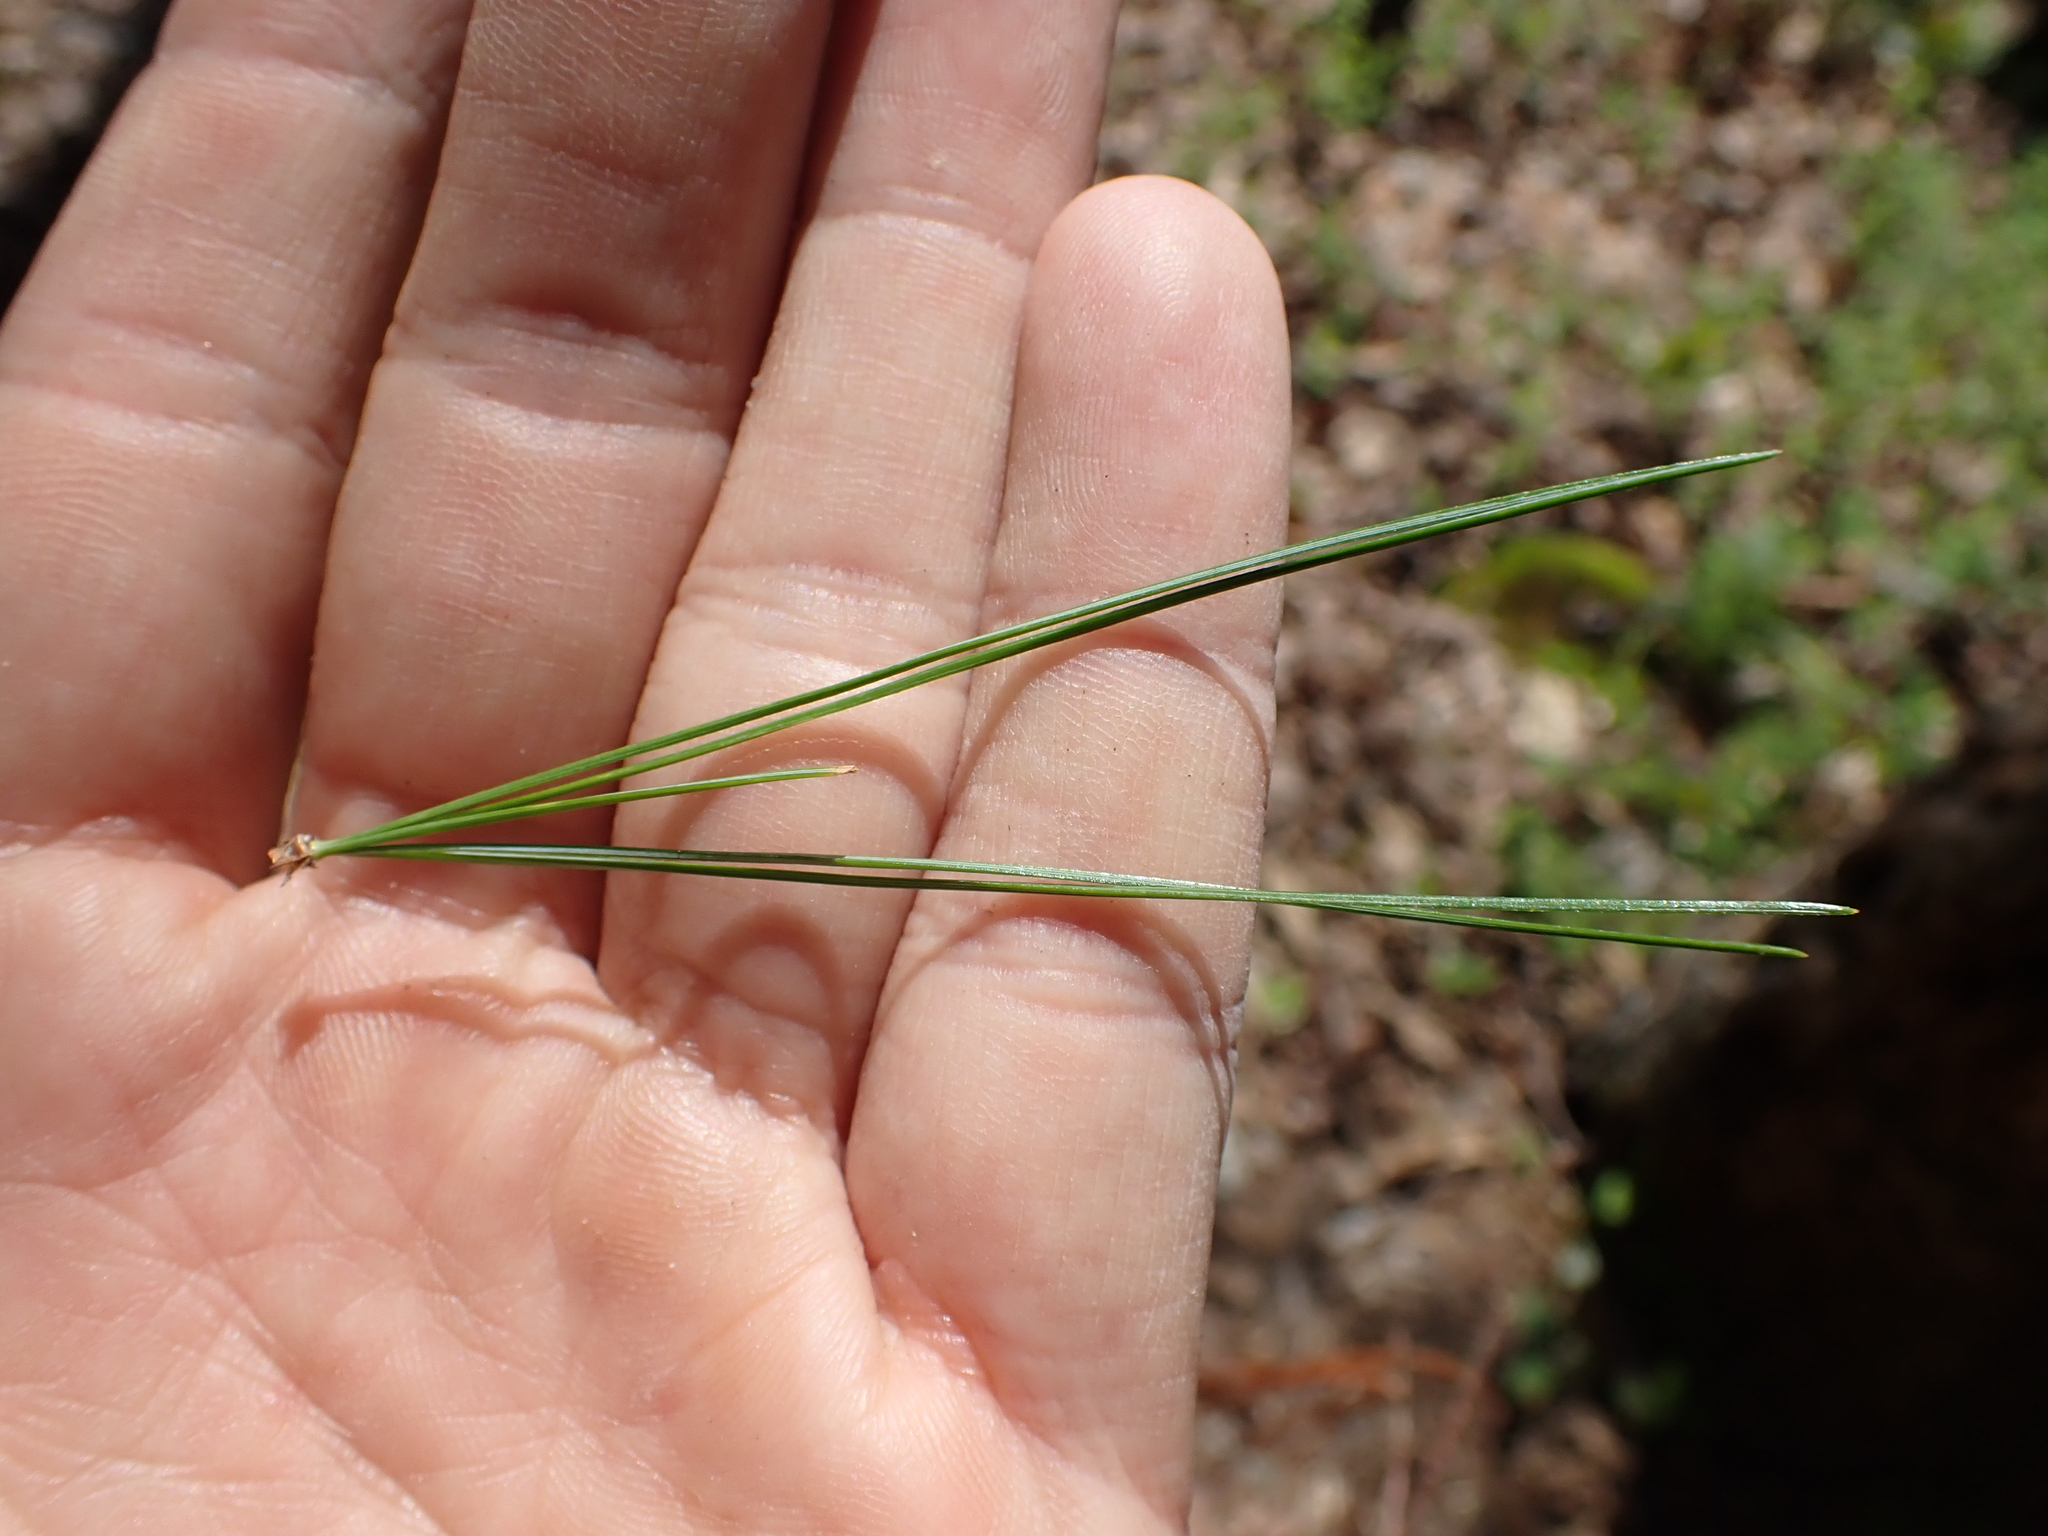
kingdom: Plantae
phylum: Tracheophyta
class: Pinopsida
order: Pinales
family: Pinaceae
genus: Pinus
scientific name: Pinus strobus
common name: Weymouth pine
